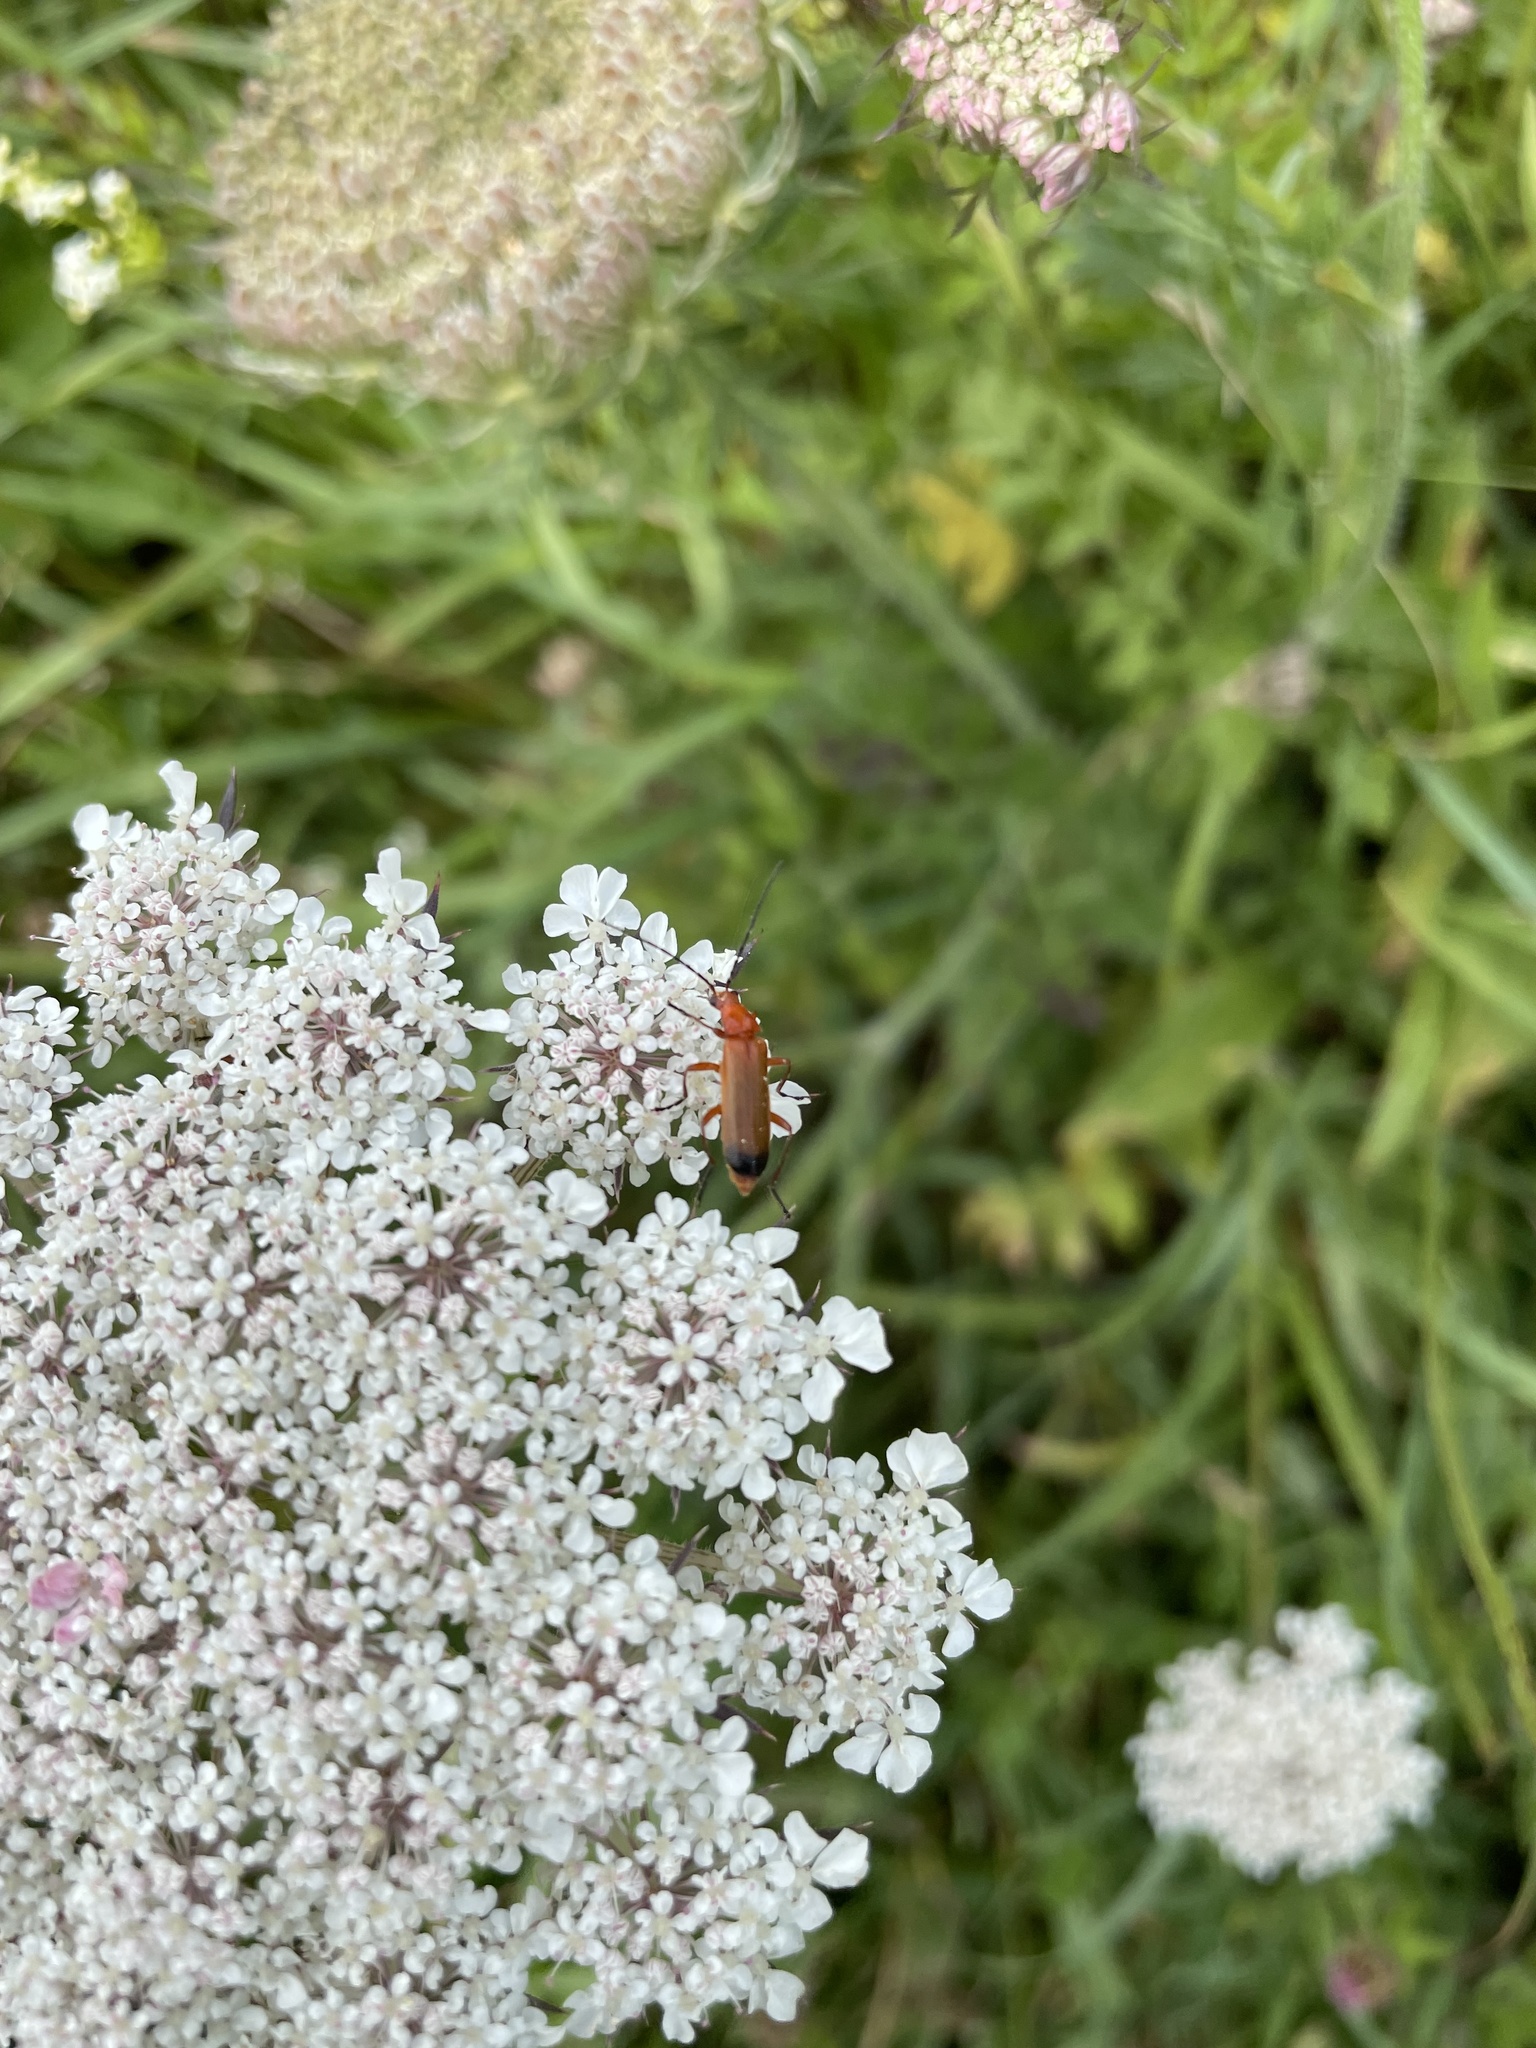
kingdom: Animalia
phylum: Arthropoda
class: Insecta
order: Coleoptera
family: Cantharidae
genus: Rhagonycha
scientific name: Rhagonycha fulva
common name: Common red soldier beetle
